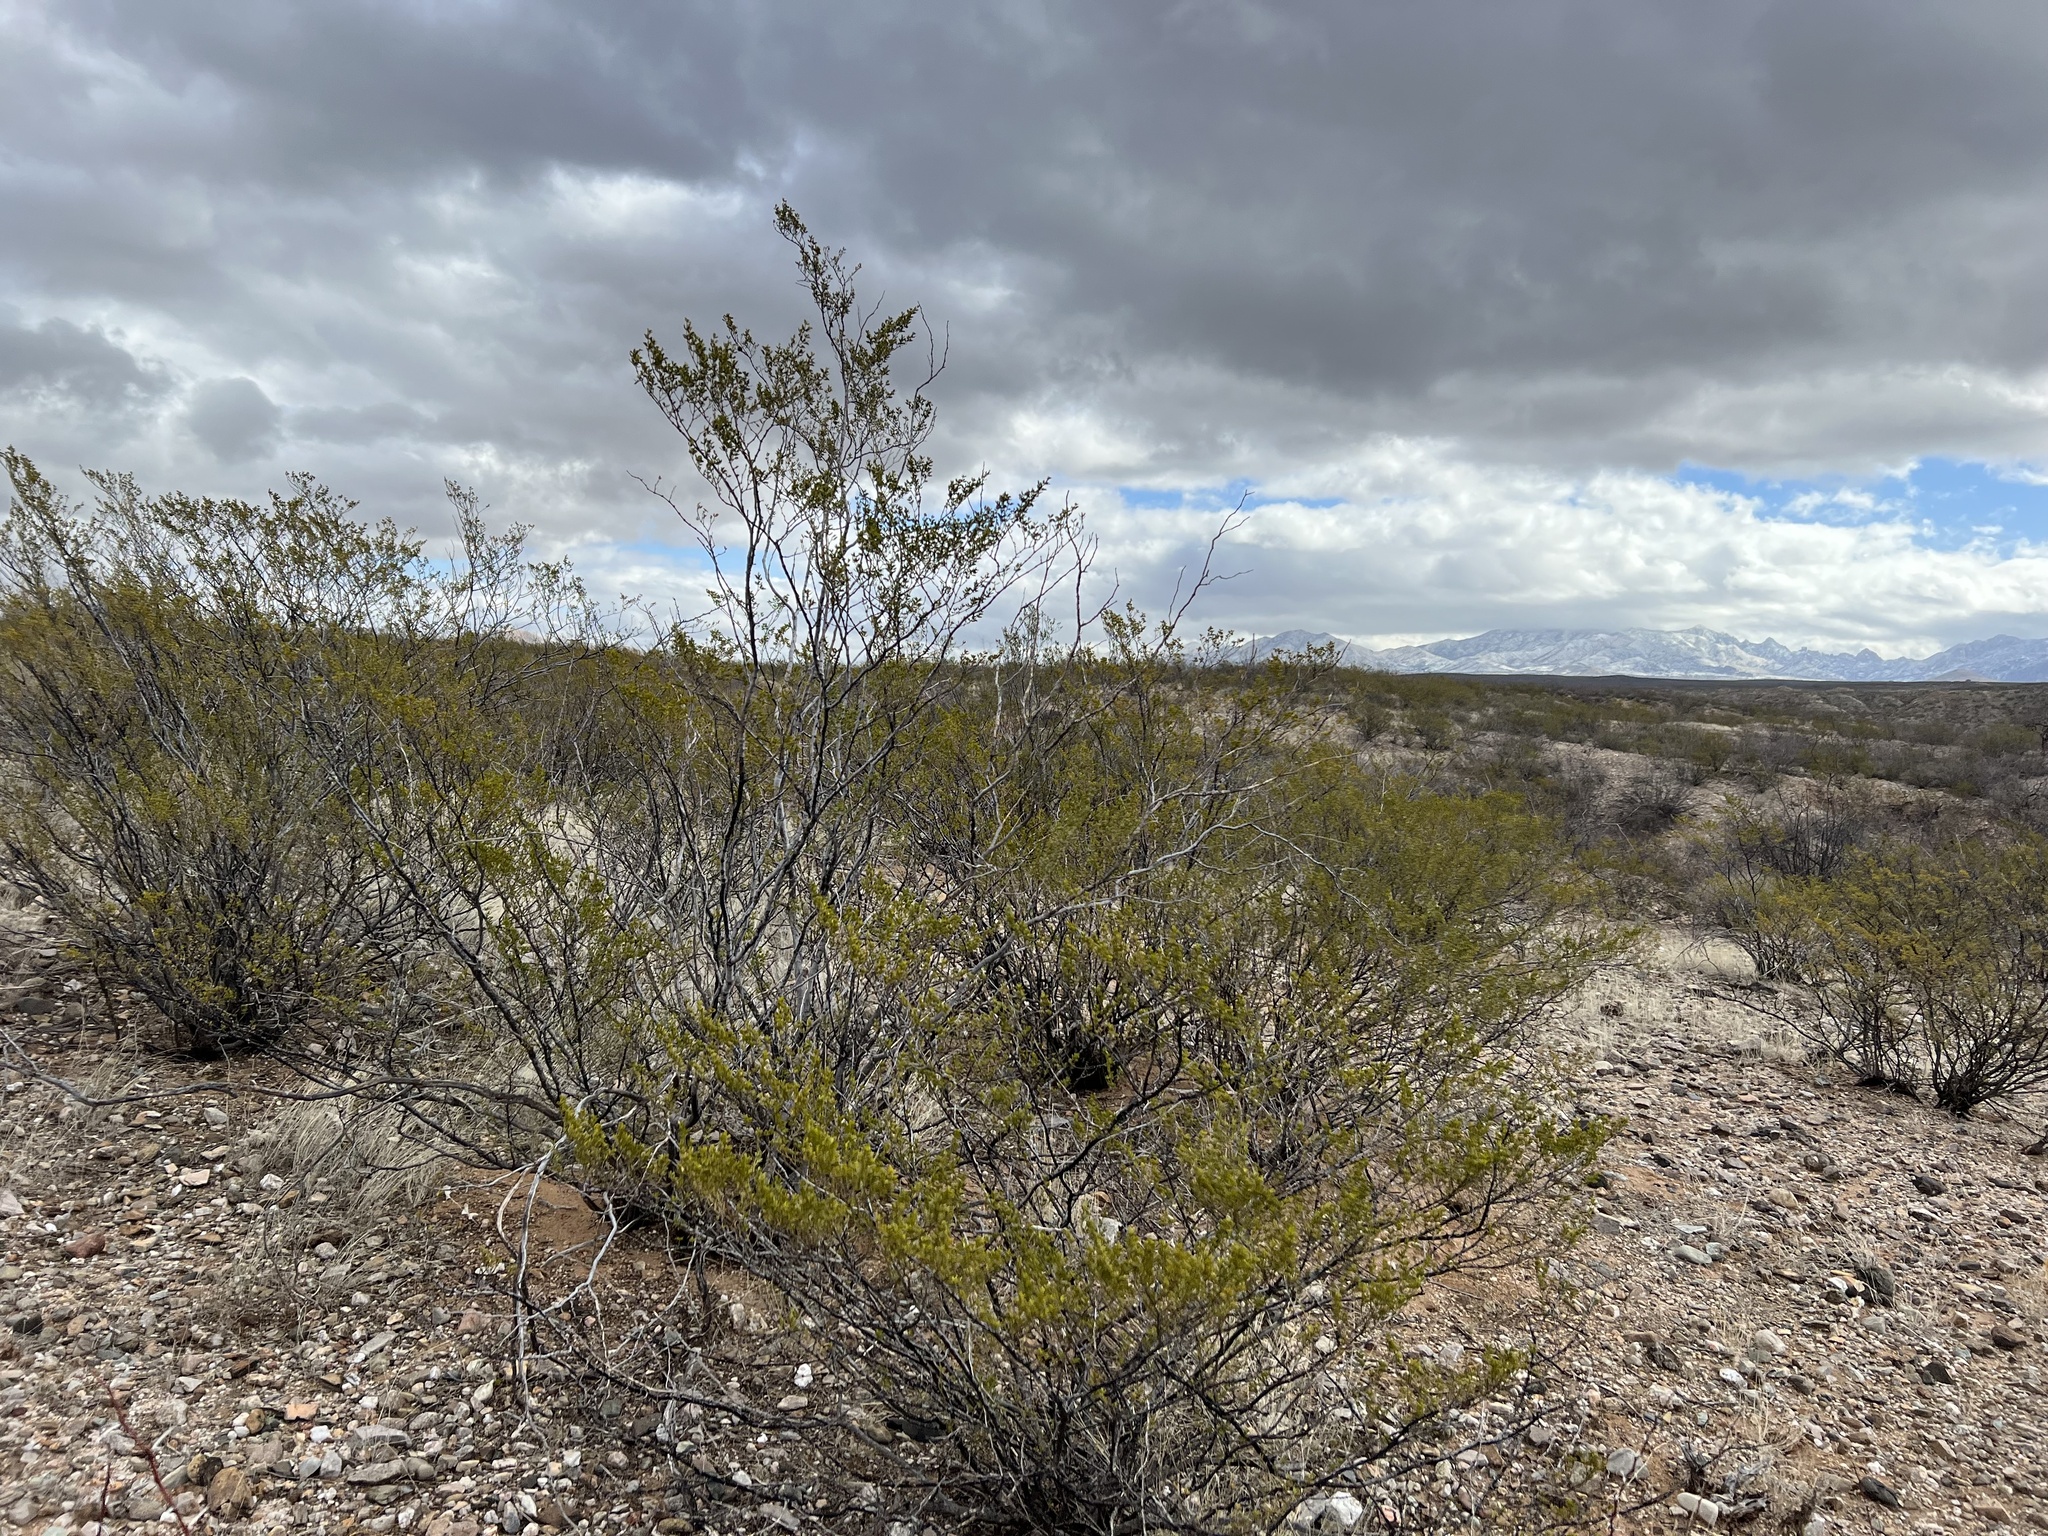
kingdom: Plantae
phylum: Tracheophyta
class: Magnoliopsida
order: Zygophyllales
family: Zygophyllaceae
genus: Larrea
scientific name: Larrea tridentata
